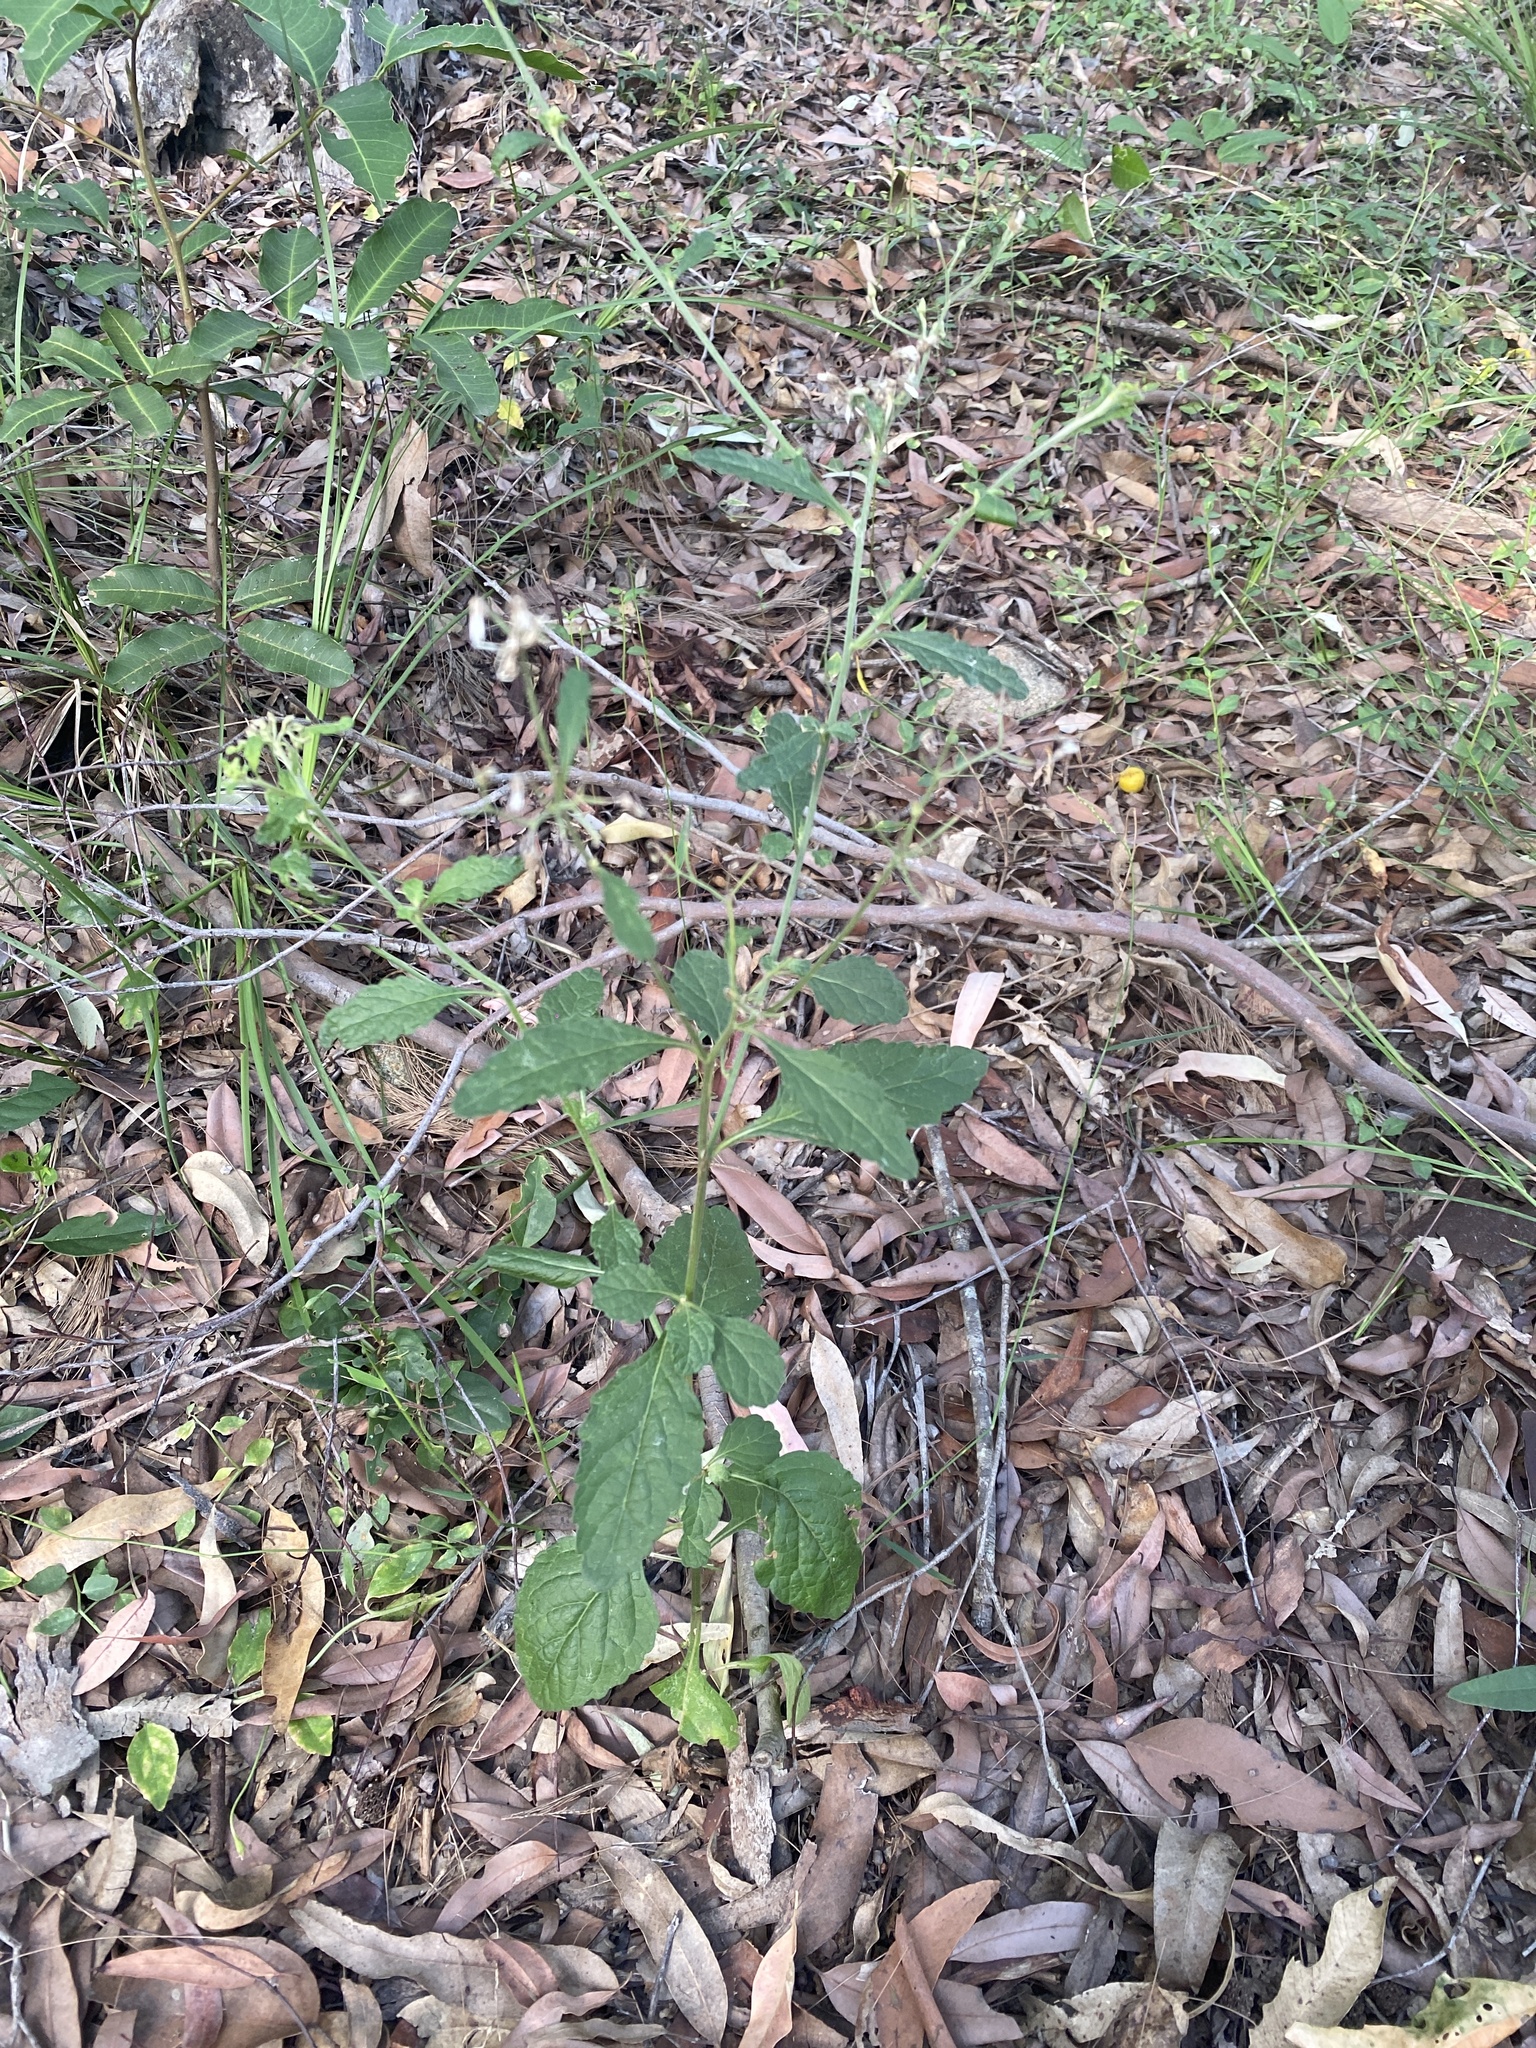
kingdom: Plantae
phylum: Tracheophyta
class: Magnoliopsida
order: Asterales
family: Asteraceae
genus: Cyanthillium
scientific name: Cyanthillium cinereum
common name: Little ironweed
